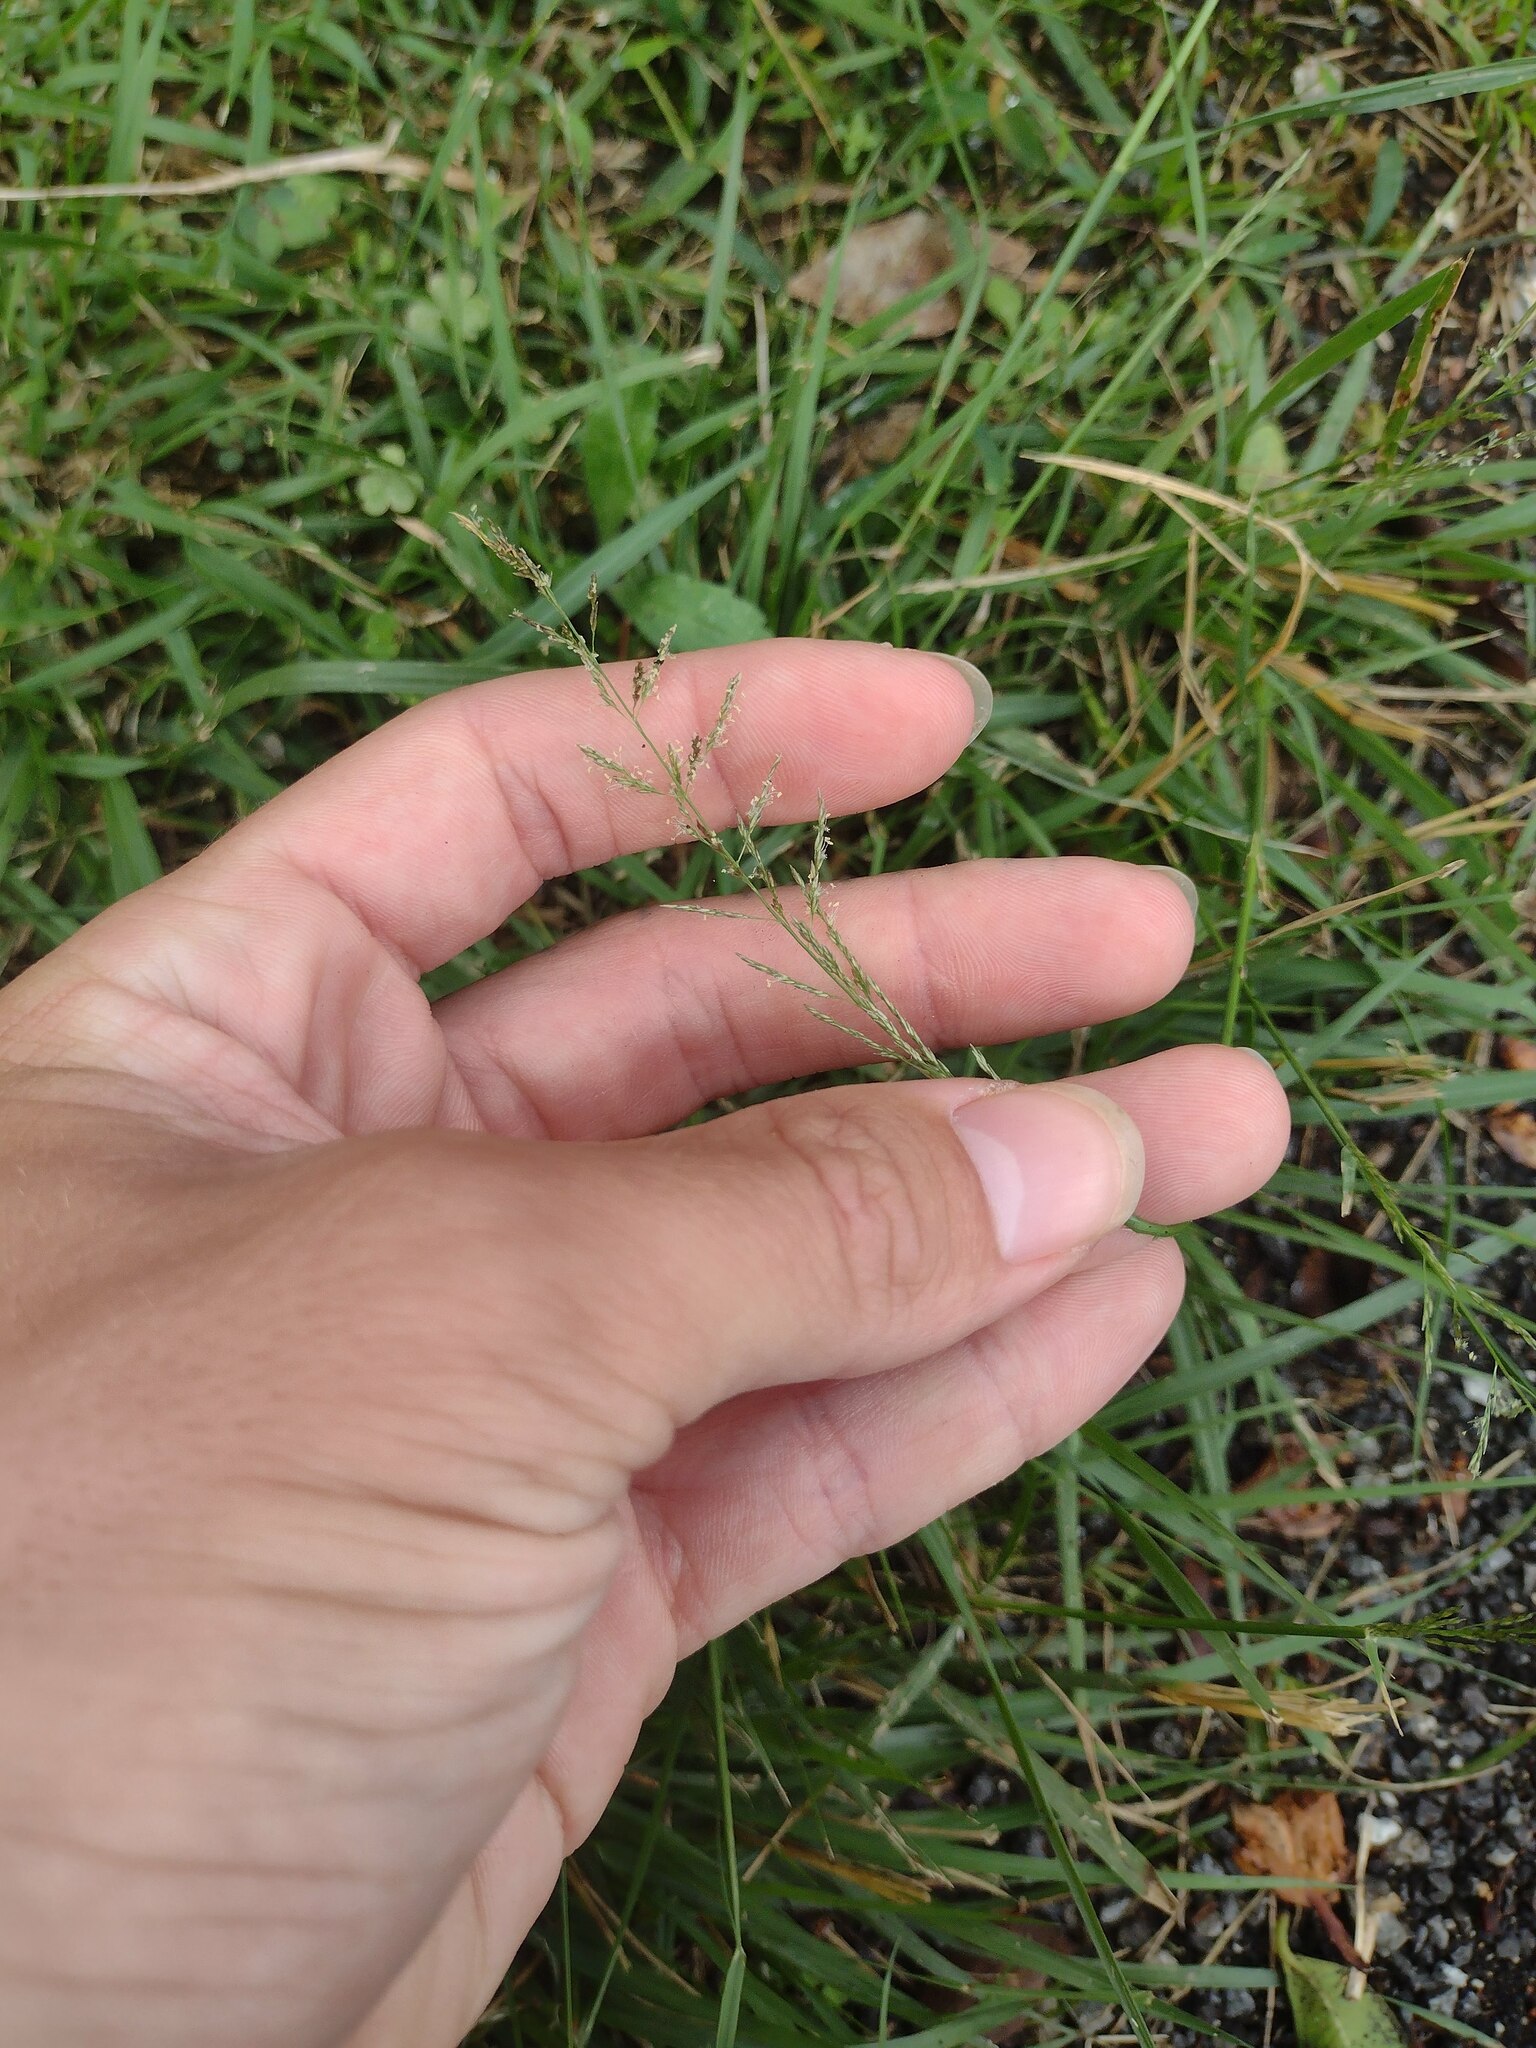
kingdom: Plantae
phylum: Tracheophyta
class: Liliopsida
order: Poales
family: Poaceae
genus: Sporobolus
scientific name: Sporobolus diandrus
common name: Tussock dropseed
